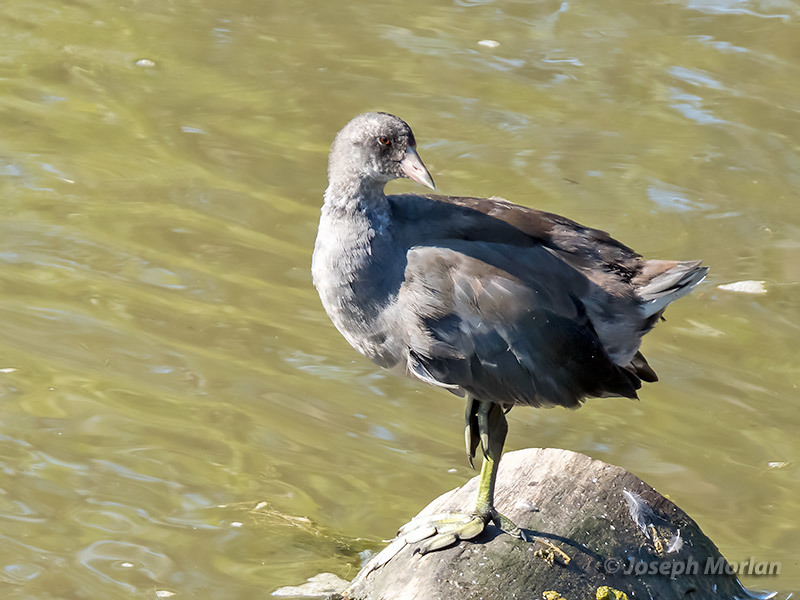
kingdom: Animalia
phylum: Chordata
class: Aves
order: Gruiformes
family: Rallidae
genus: Fulica
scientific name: Fulica americana
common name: American coot
